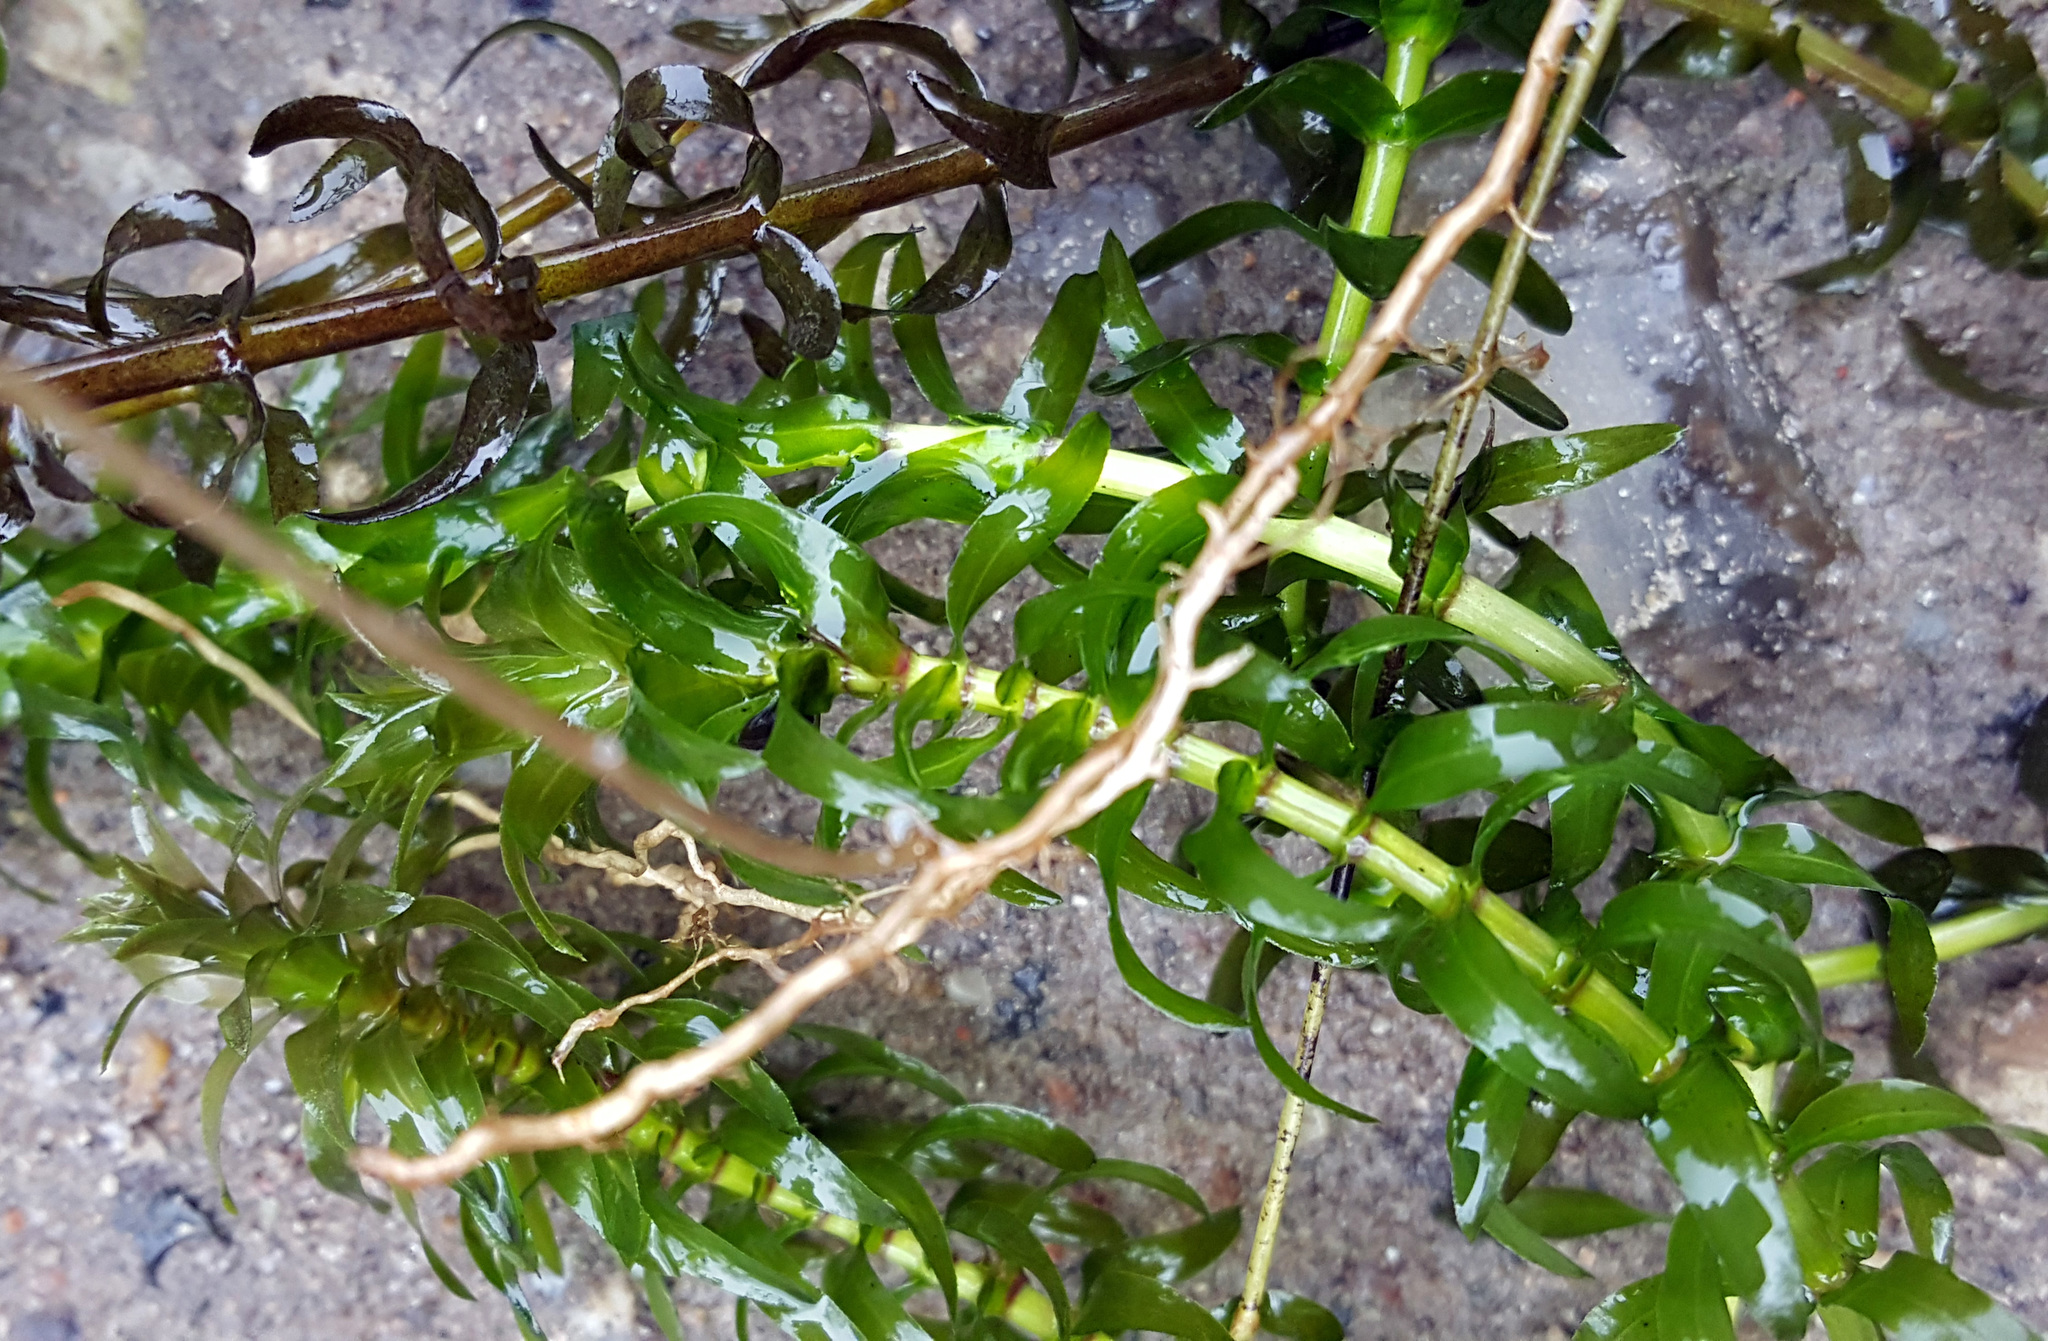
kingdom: Plantae
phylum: Tracheophyta
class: Liliopsida
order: Alismatales
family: Hydrocharitaceae
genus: Elodea
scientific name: Elodea canadensis
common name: Canadian waterweed
